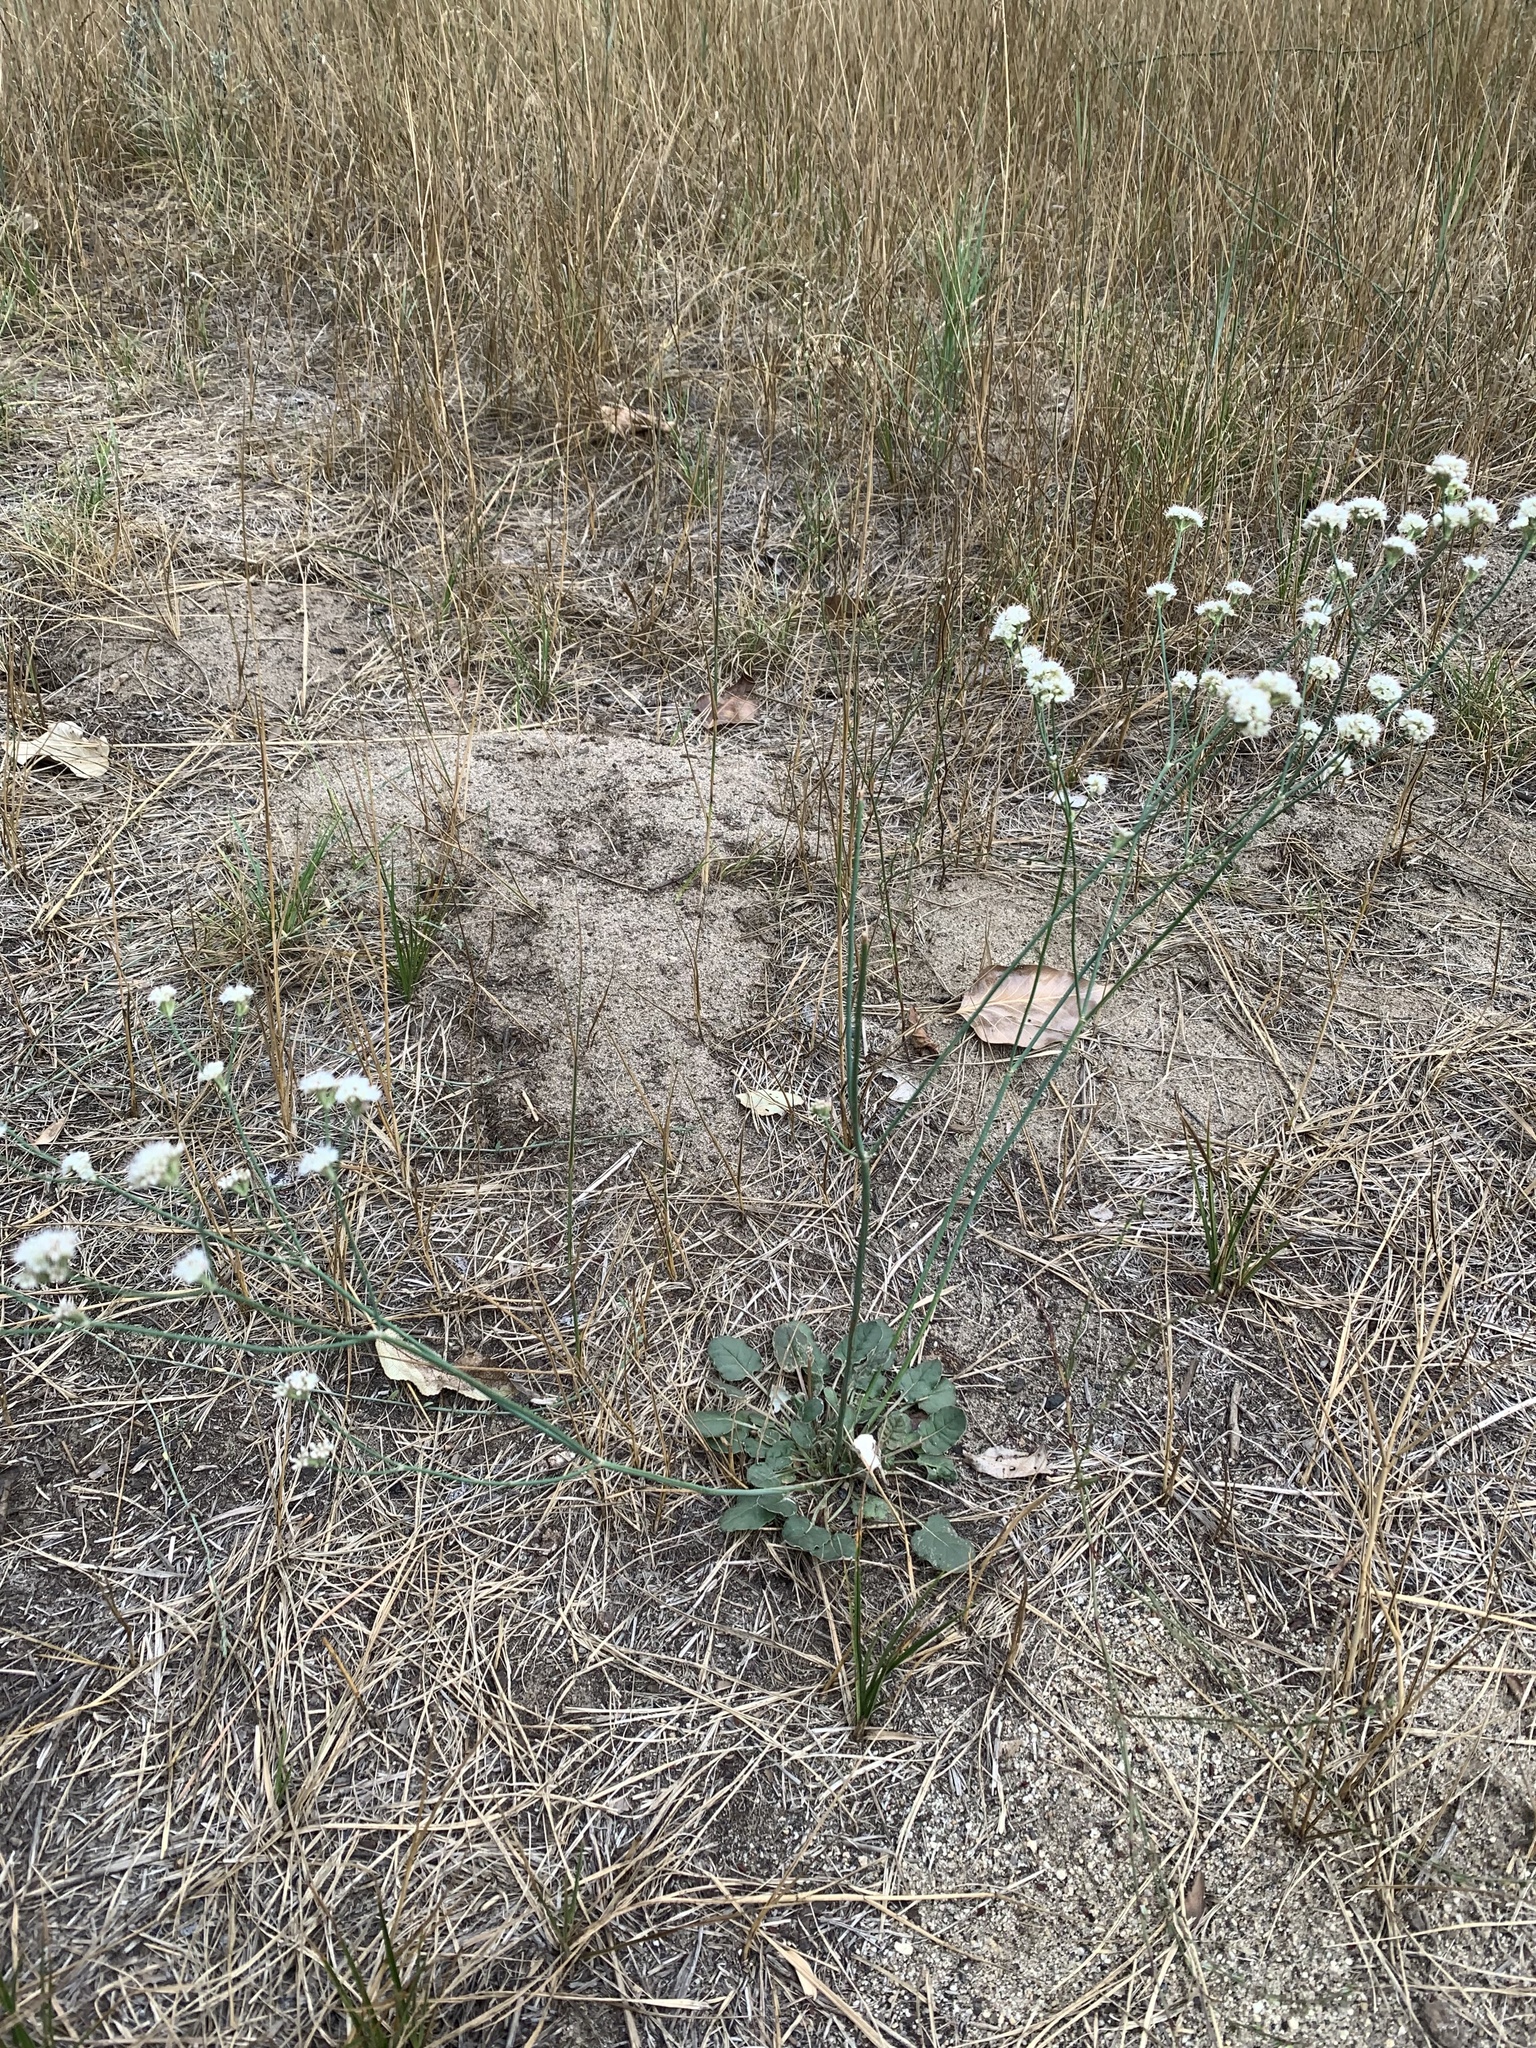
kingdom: Plantae
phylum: Tracheophyta
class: Magnoliopsida
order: Caryophyllales
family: Polygonaceae
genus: Eriogonum
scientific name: Eriogonum nudum
